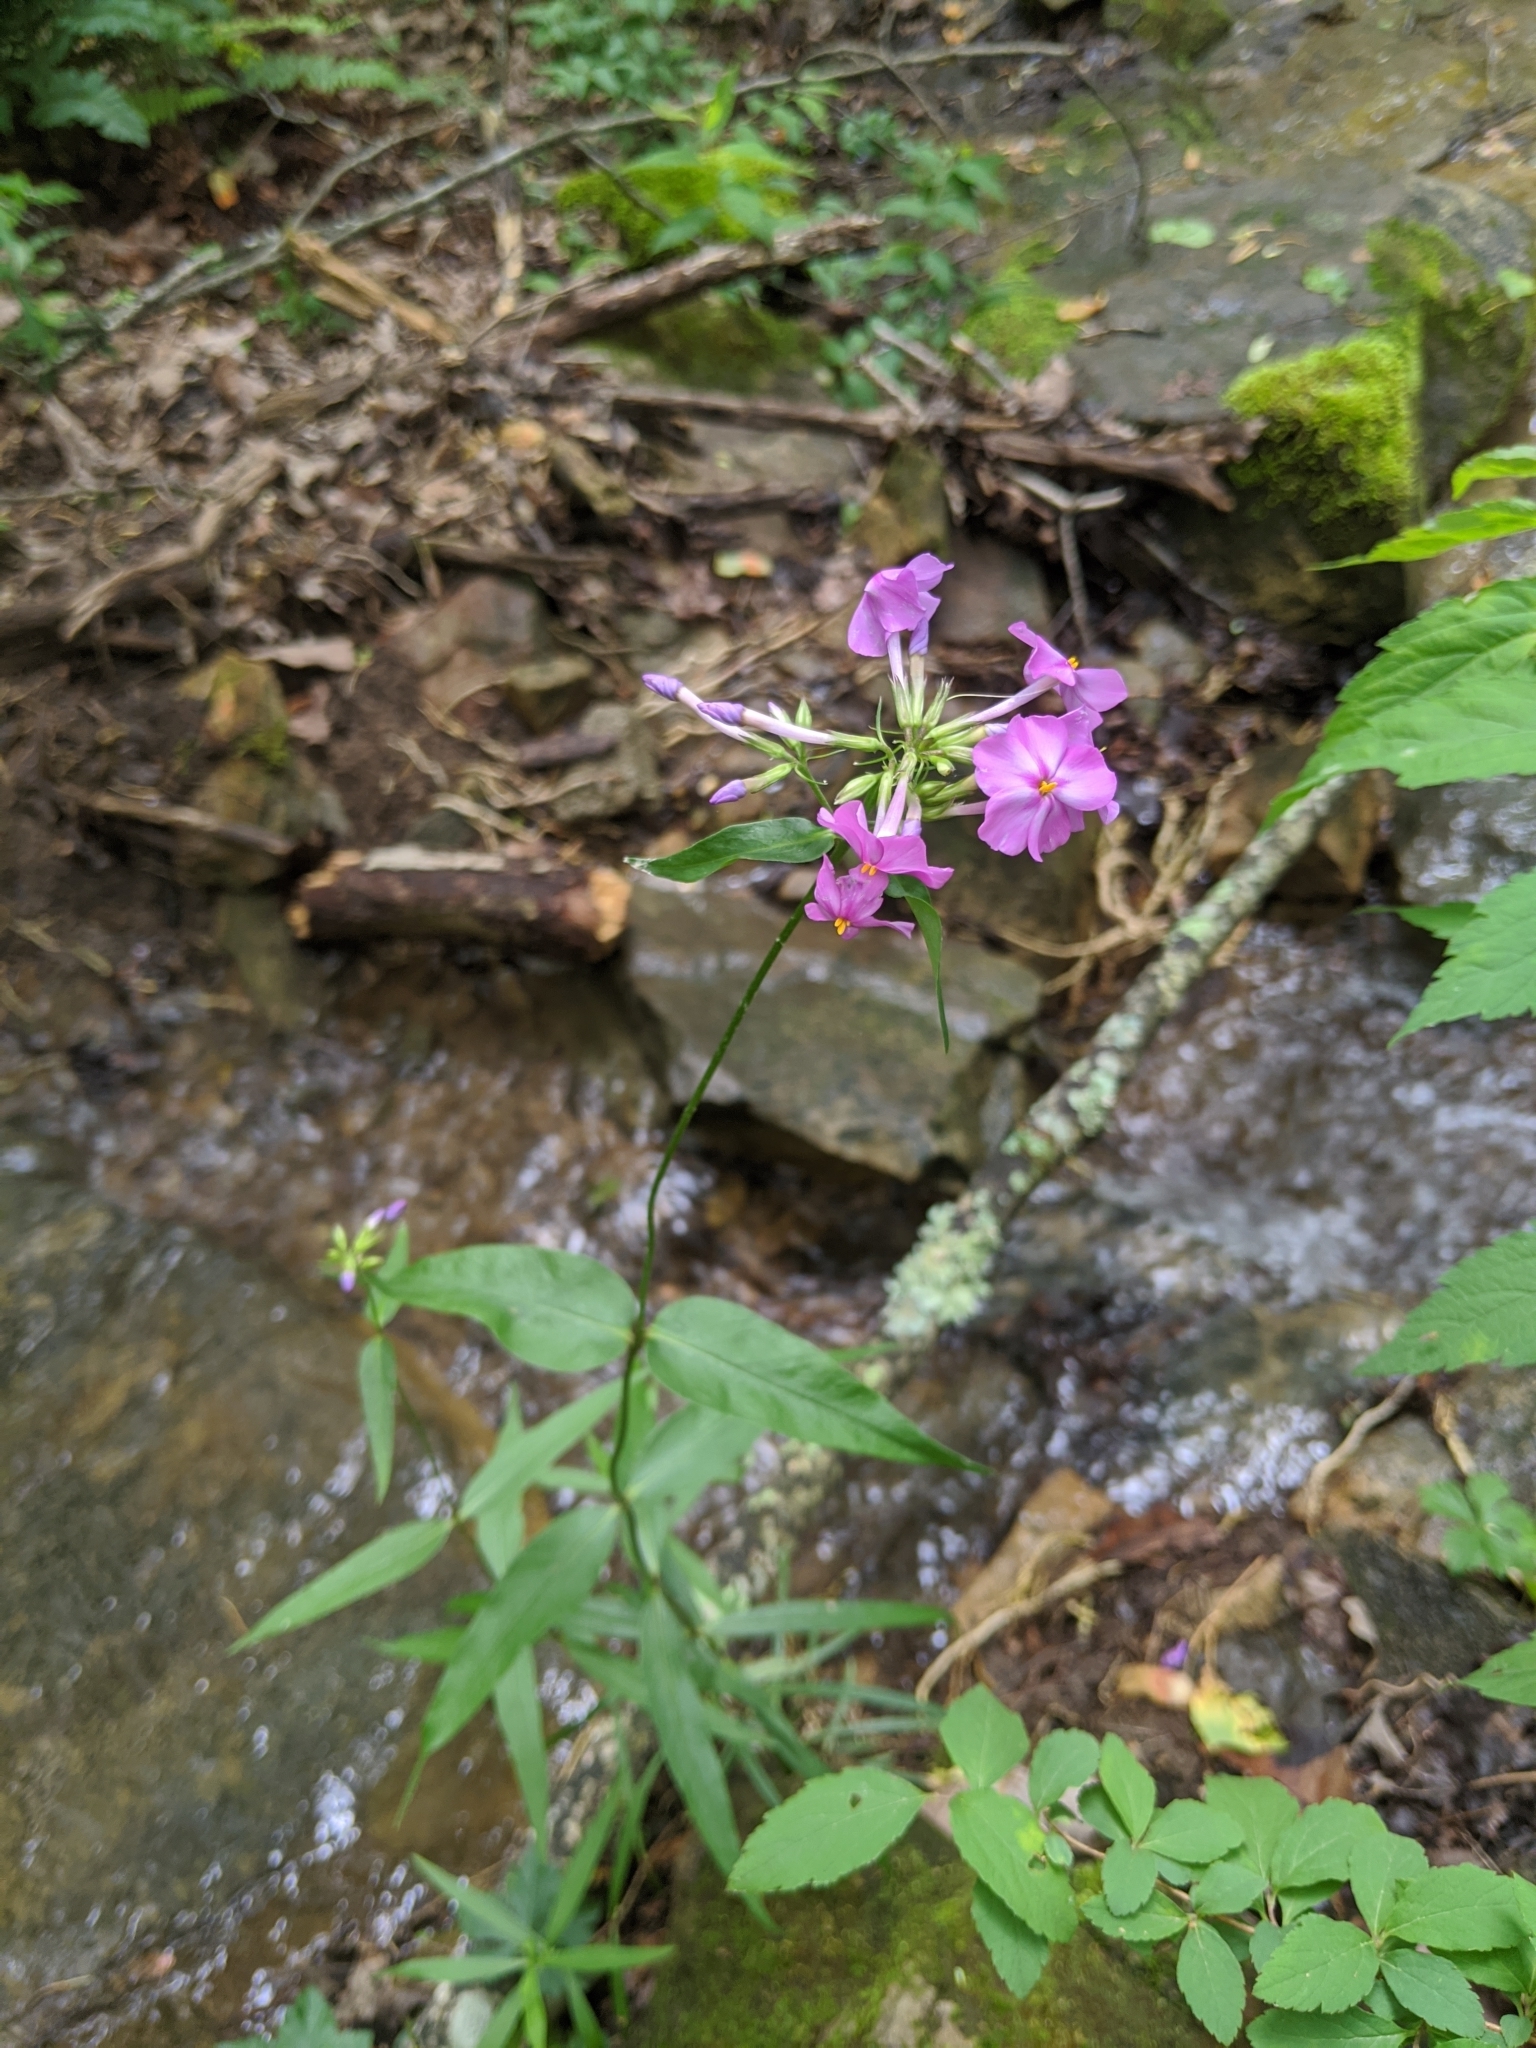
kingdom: Plantae
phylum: Tracheophyta
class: Magnoliopsida
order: Ericales
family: Polemoniaceae
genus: Phlox
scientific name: Phlox carolina
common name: Thick-leaf phlox
